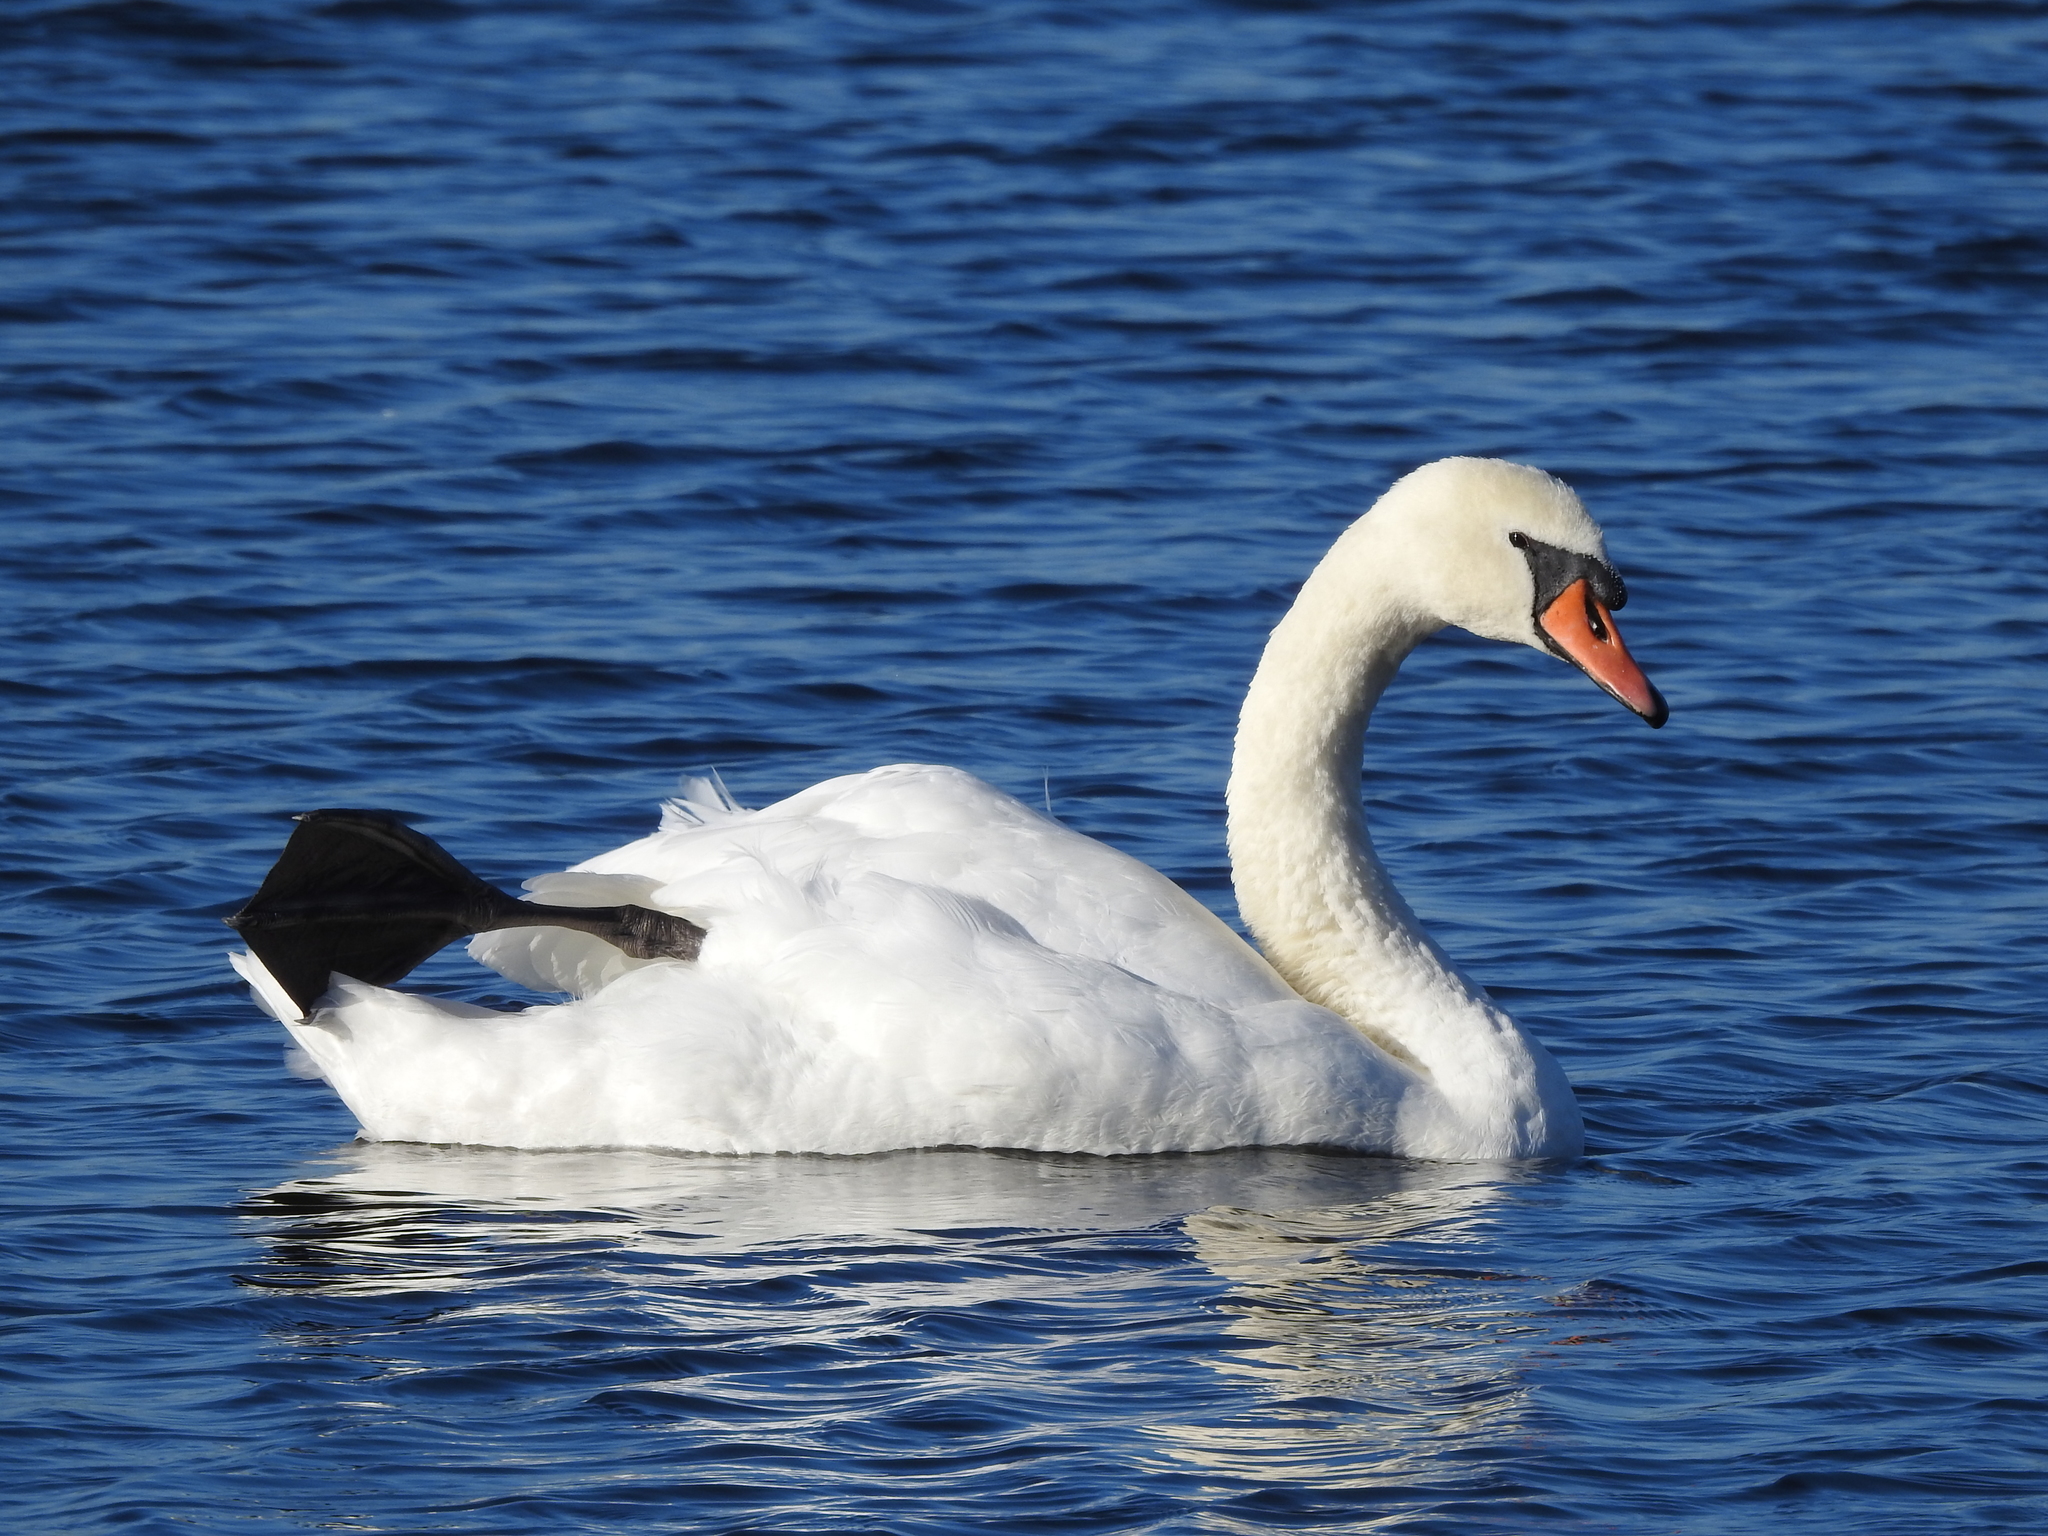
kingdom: Animalia
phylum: Chordata
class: Aves
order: Anseriformes
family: Anatidae
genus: Cygnus
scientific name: Cygnus olor
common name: Mute swan
